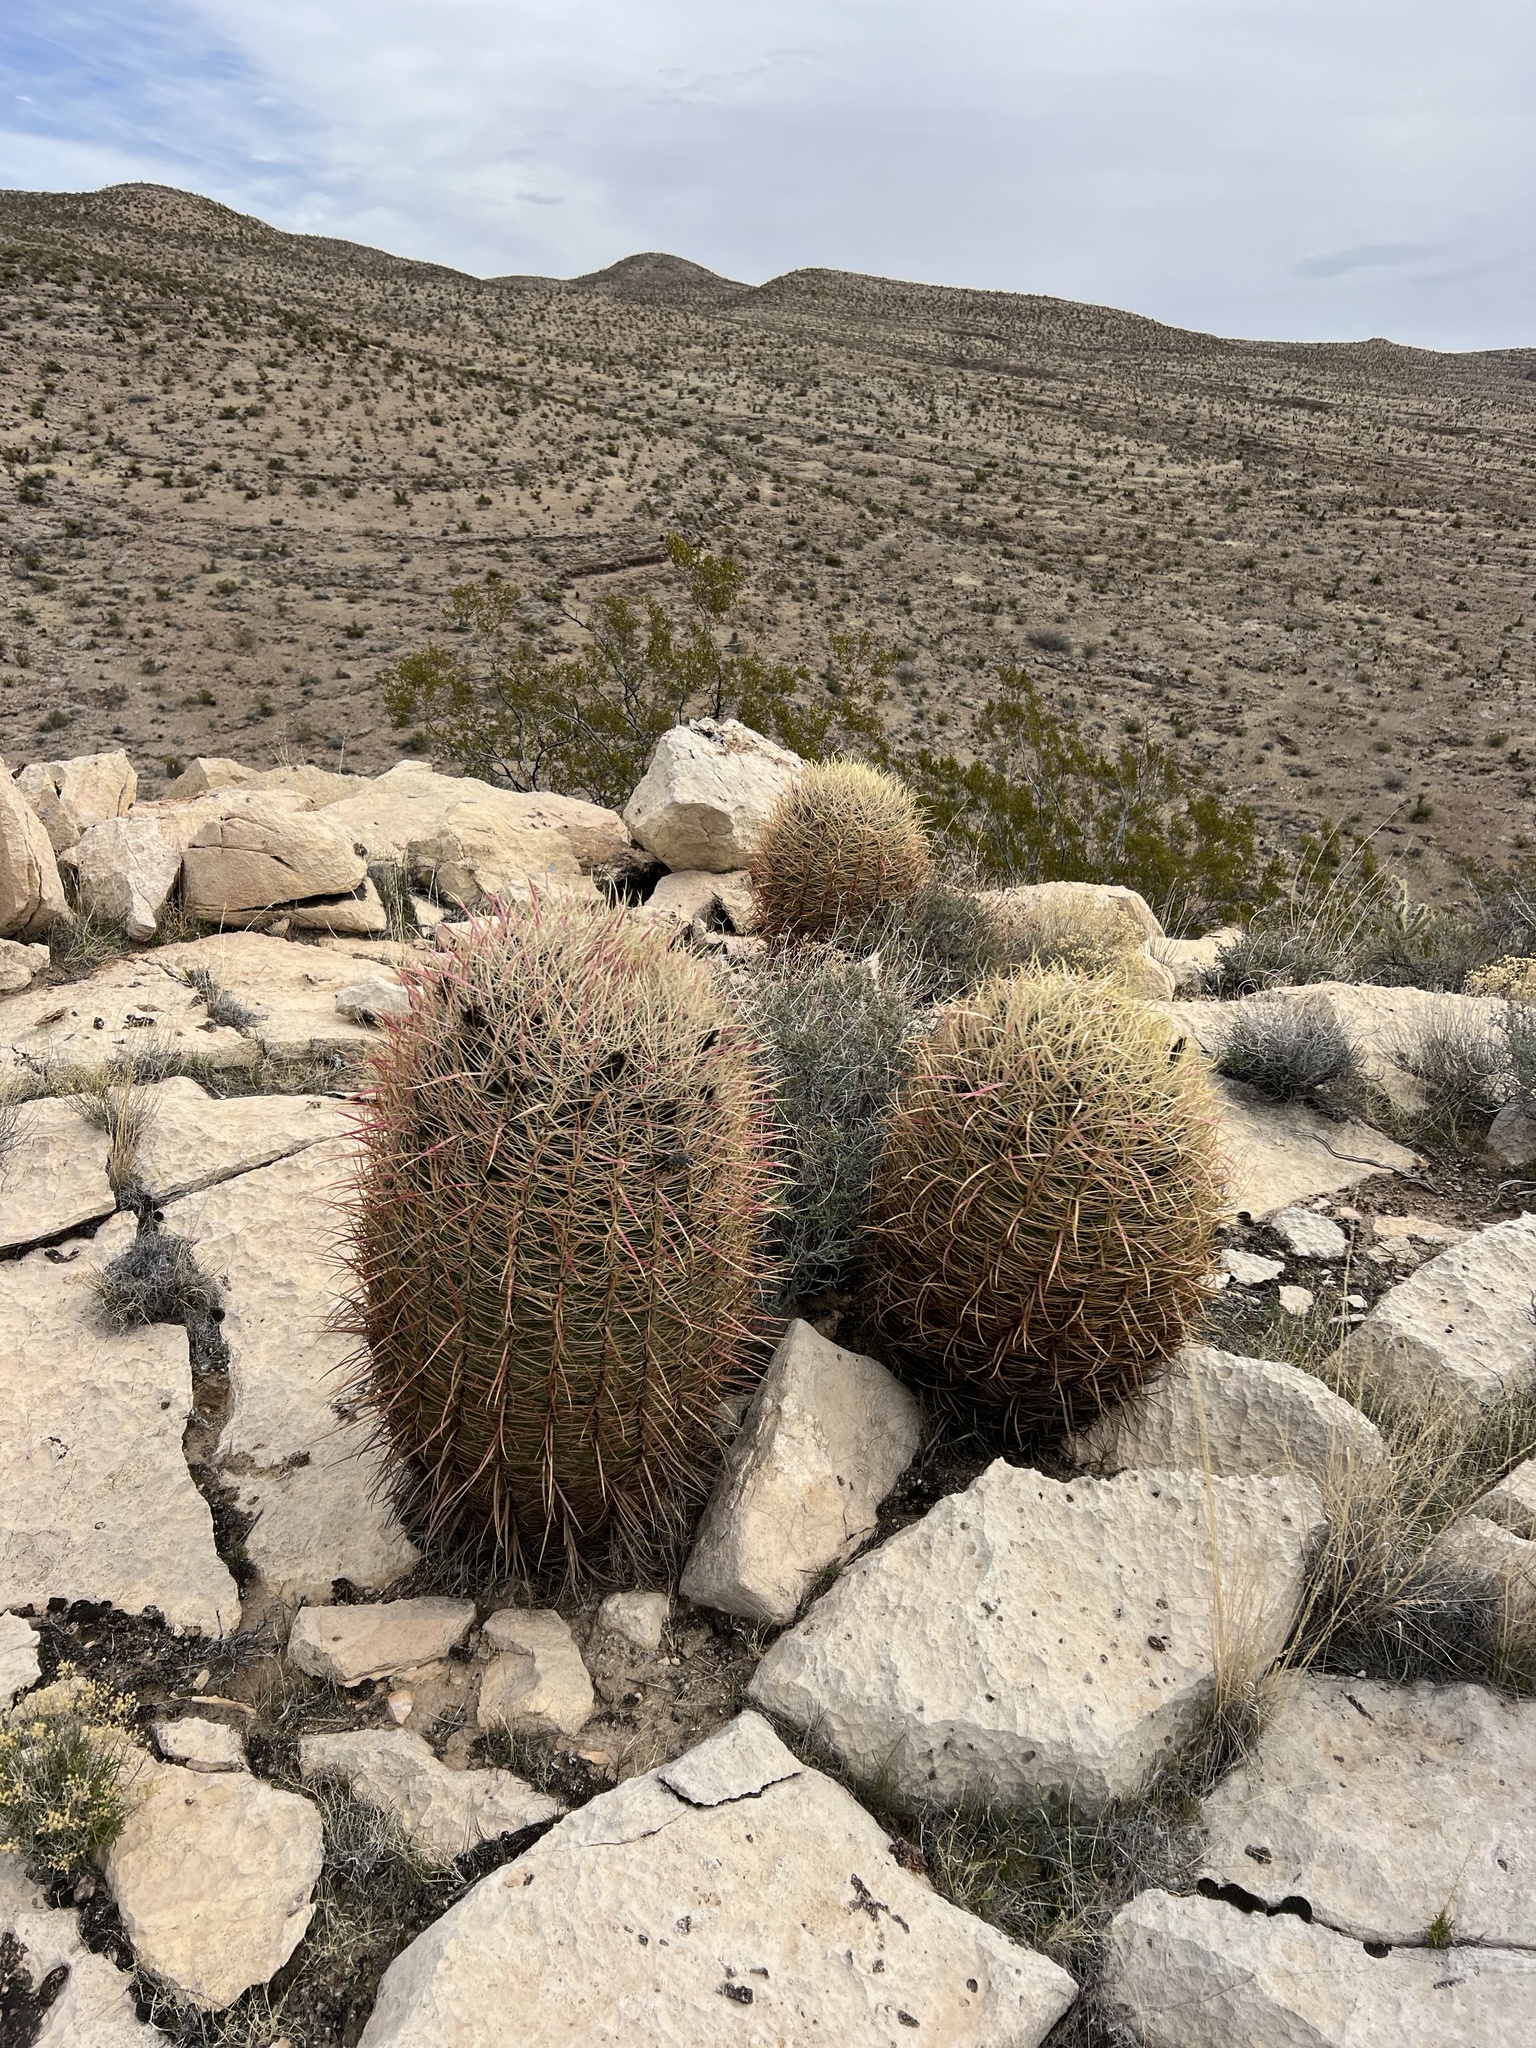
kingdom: Plantae
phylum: Tracheophyta
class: Magnoliopsida
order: Caryophyllales
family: Cactaceae
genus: Ferocactus
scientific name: Ferocactus cylindraceus
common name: California barrel cactus
